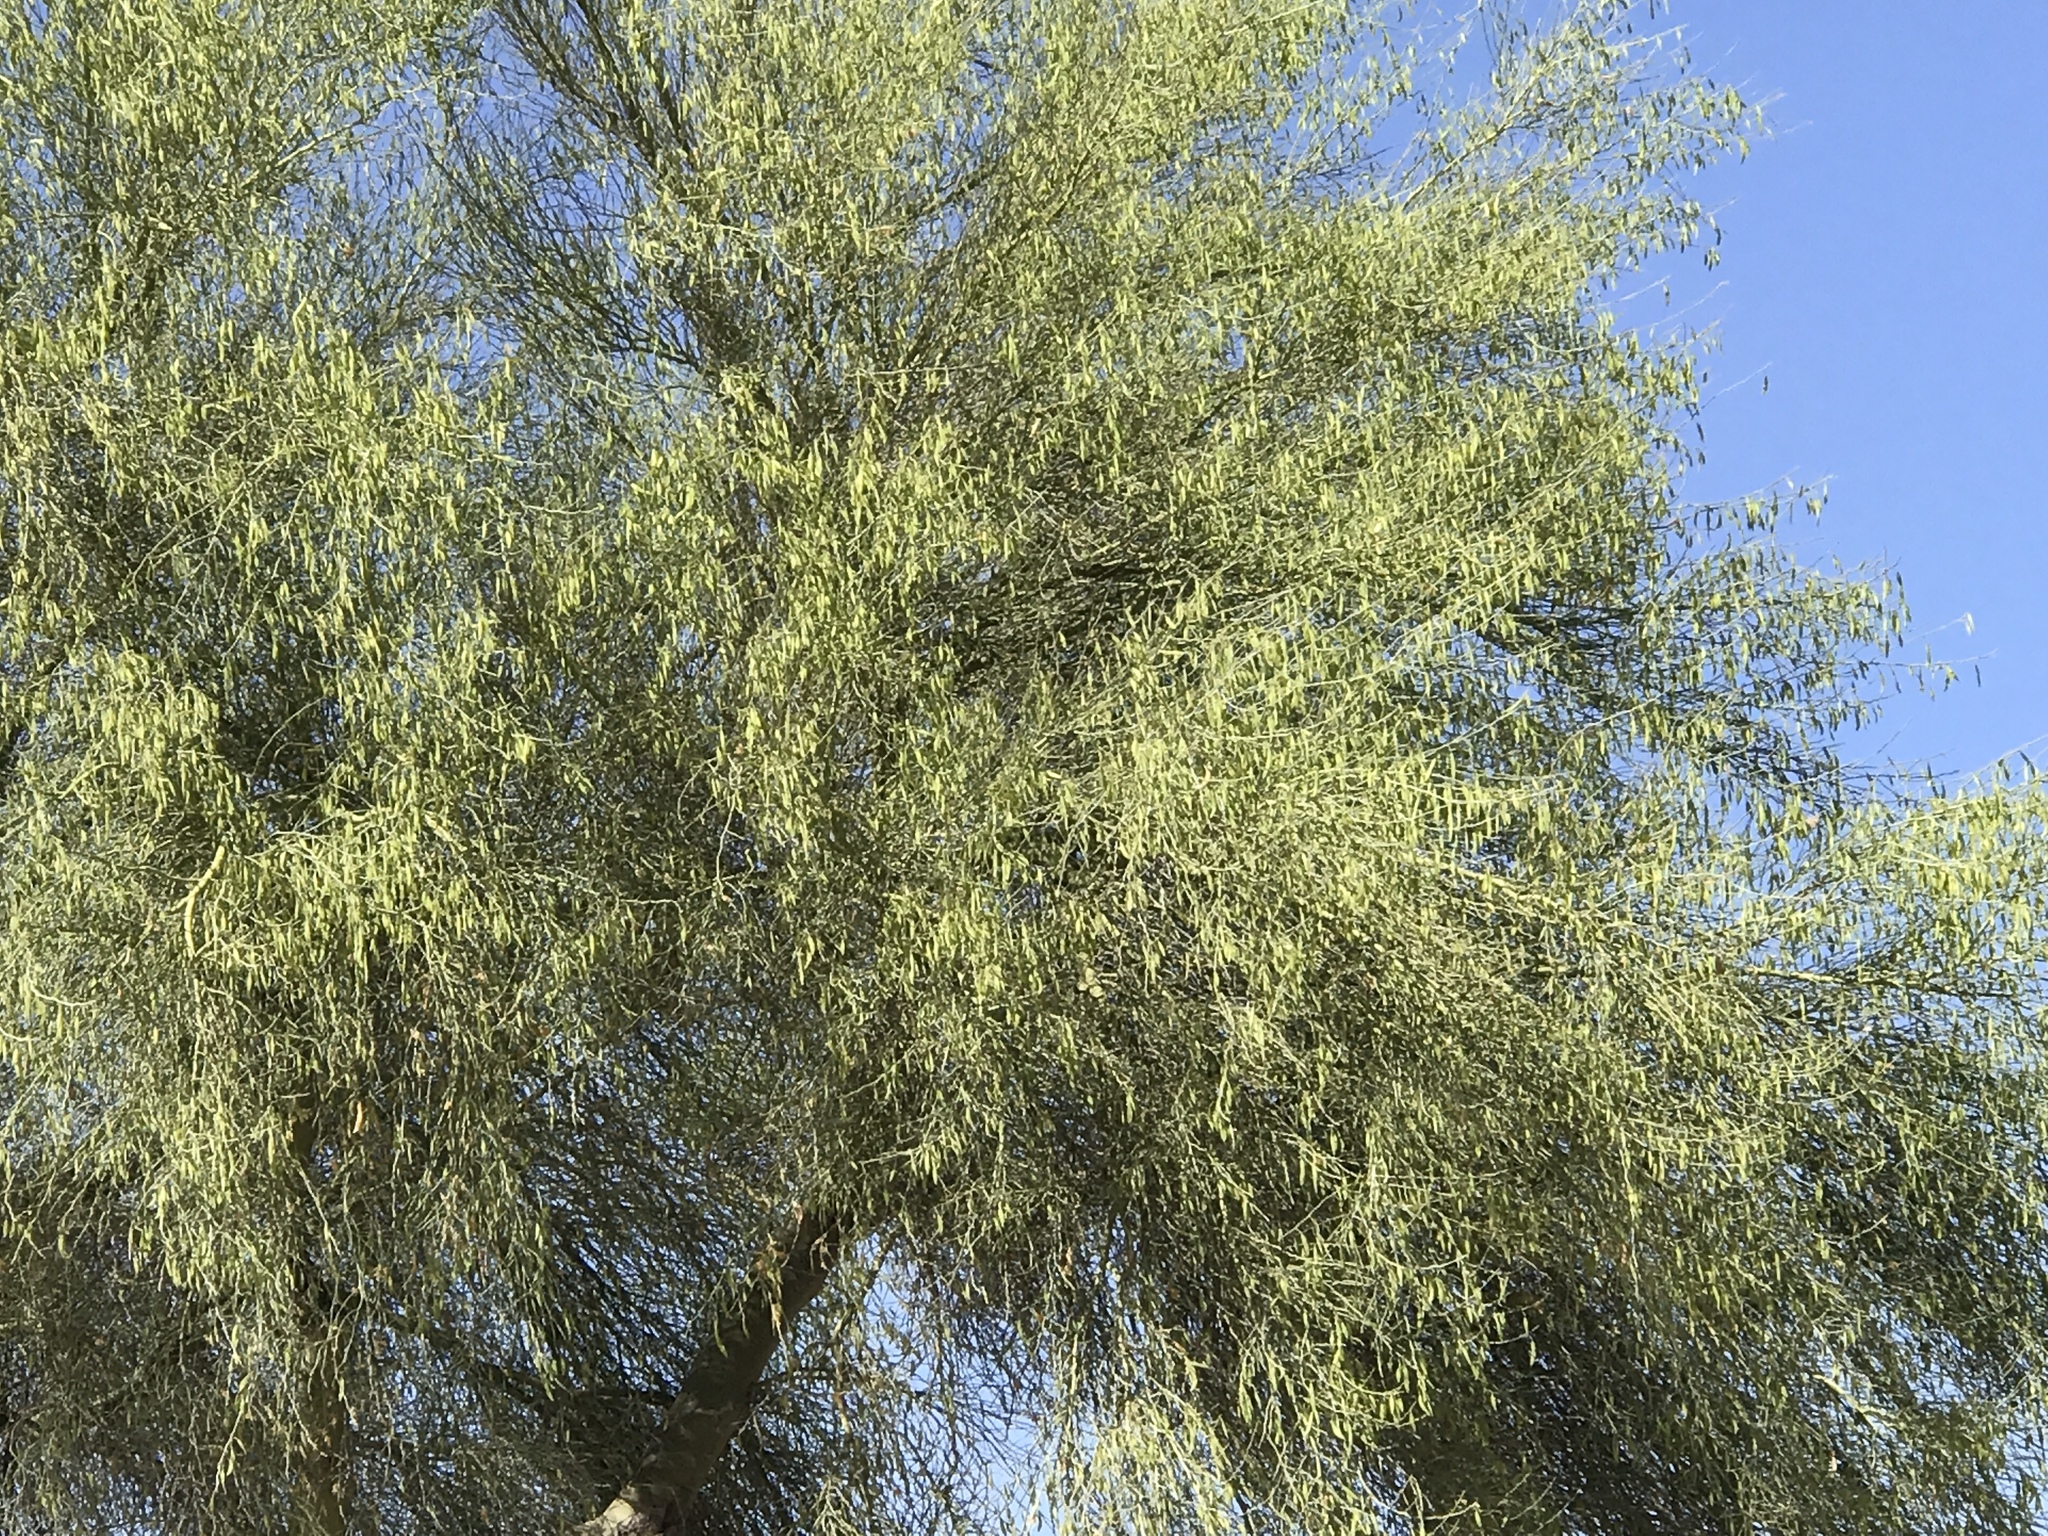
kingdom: Plantae
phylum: Tracheophyta
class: Magnoliopsida
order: Fabales
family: Fabaceae
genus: Parkinsonia
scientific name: Parkinsonia florida
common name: Blue paloverde
